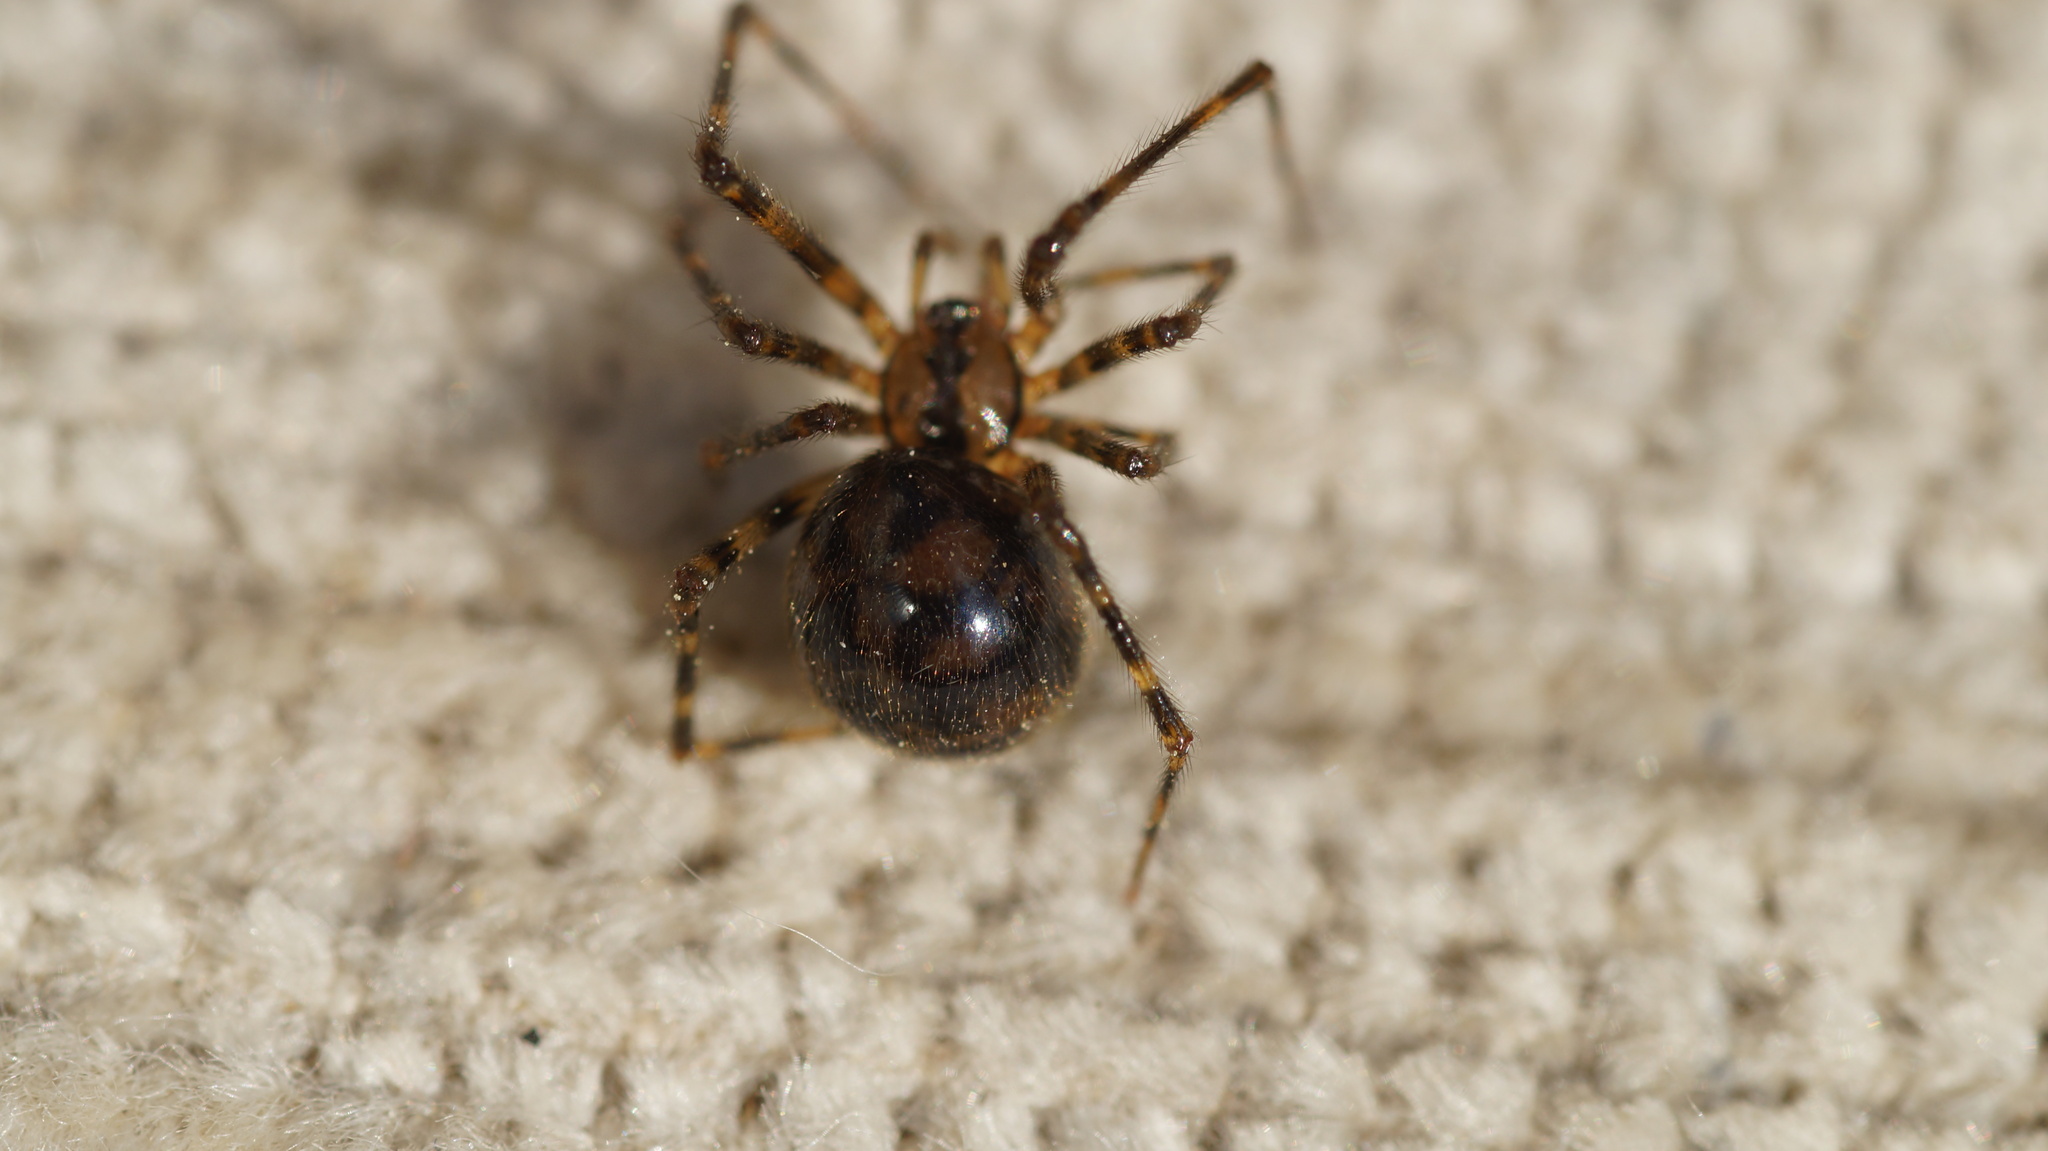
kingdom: Animalia
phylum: Arthropoda
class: Arachnida
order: Araneae
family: Nesticidae
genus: Nesticus
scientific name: Nesticus cellulanus
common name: Comb-footed cellar spider
